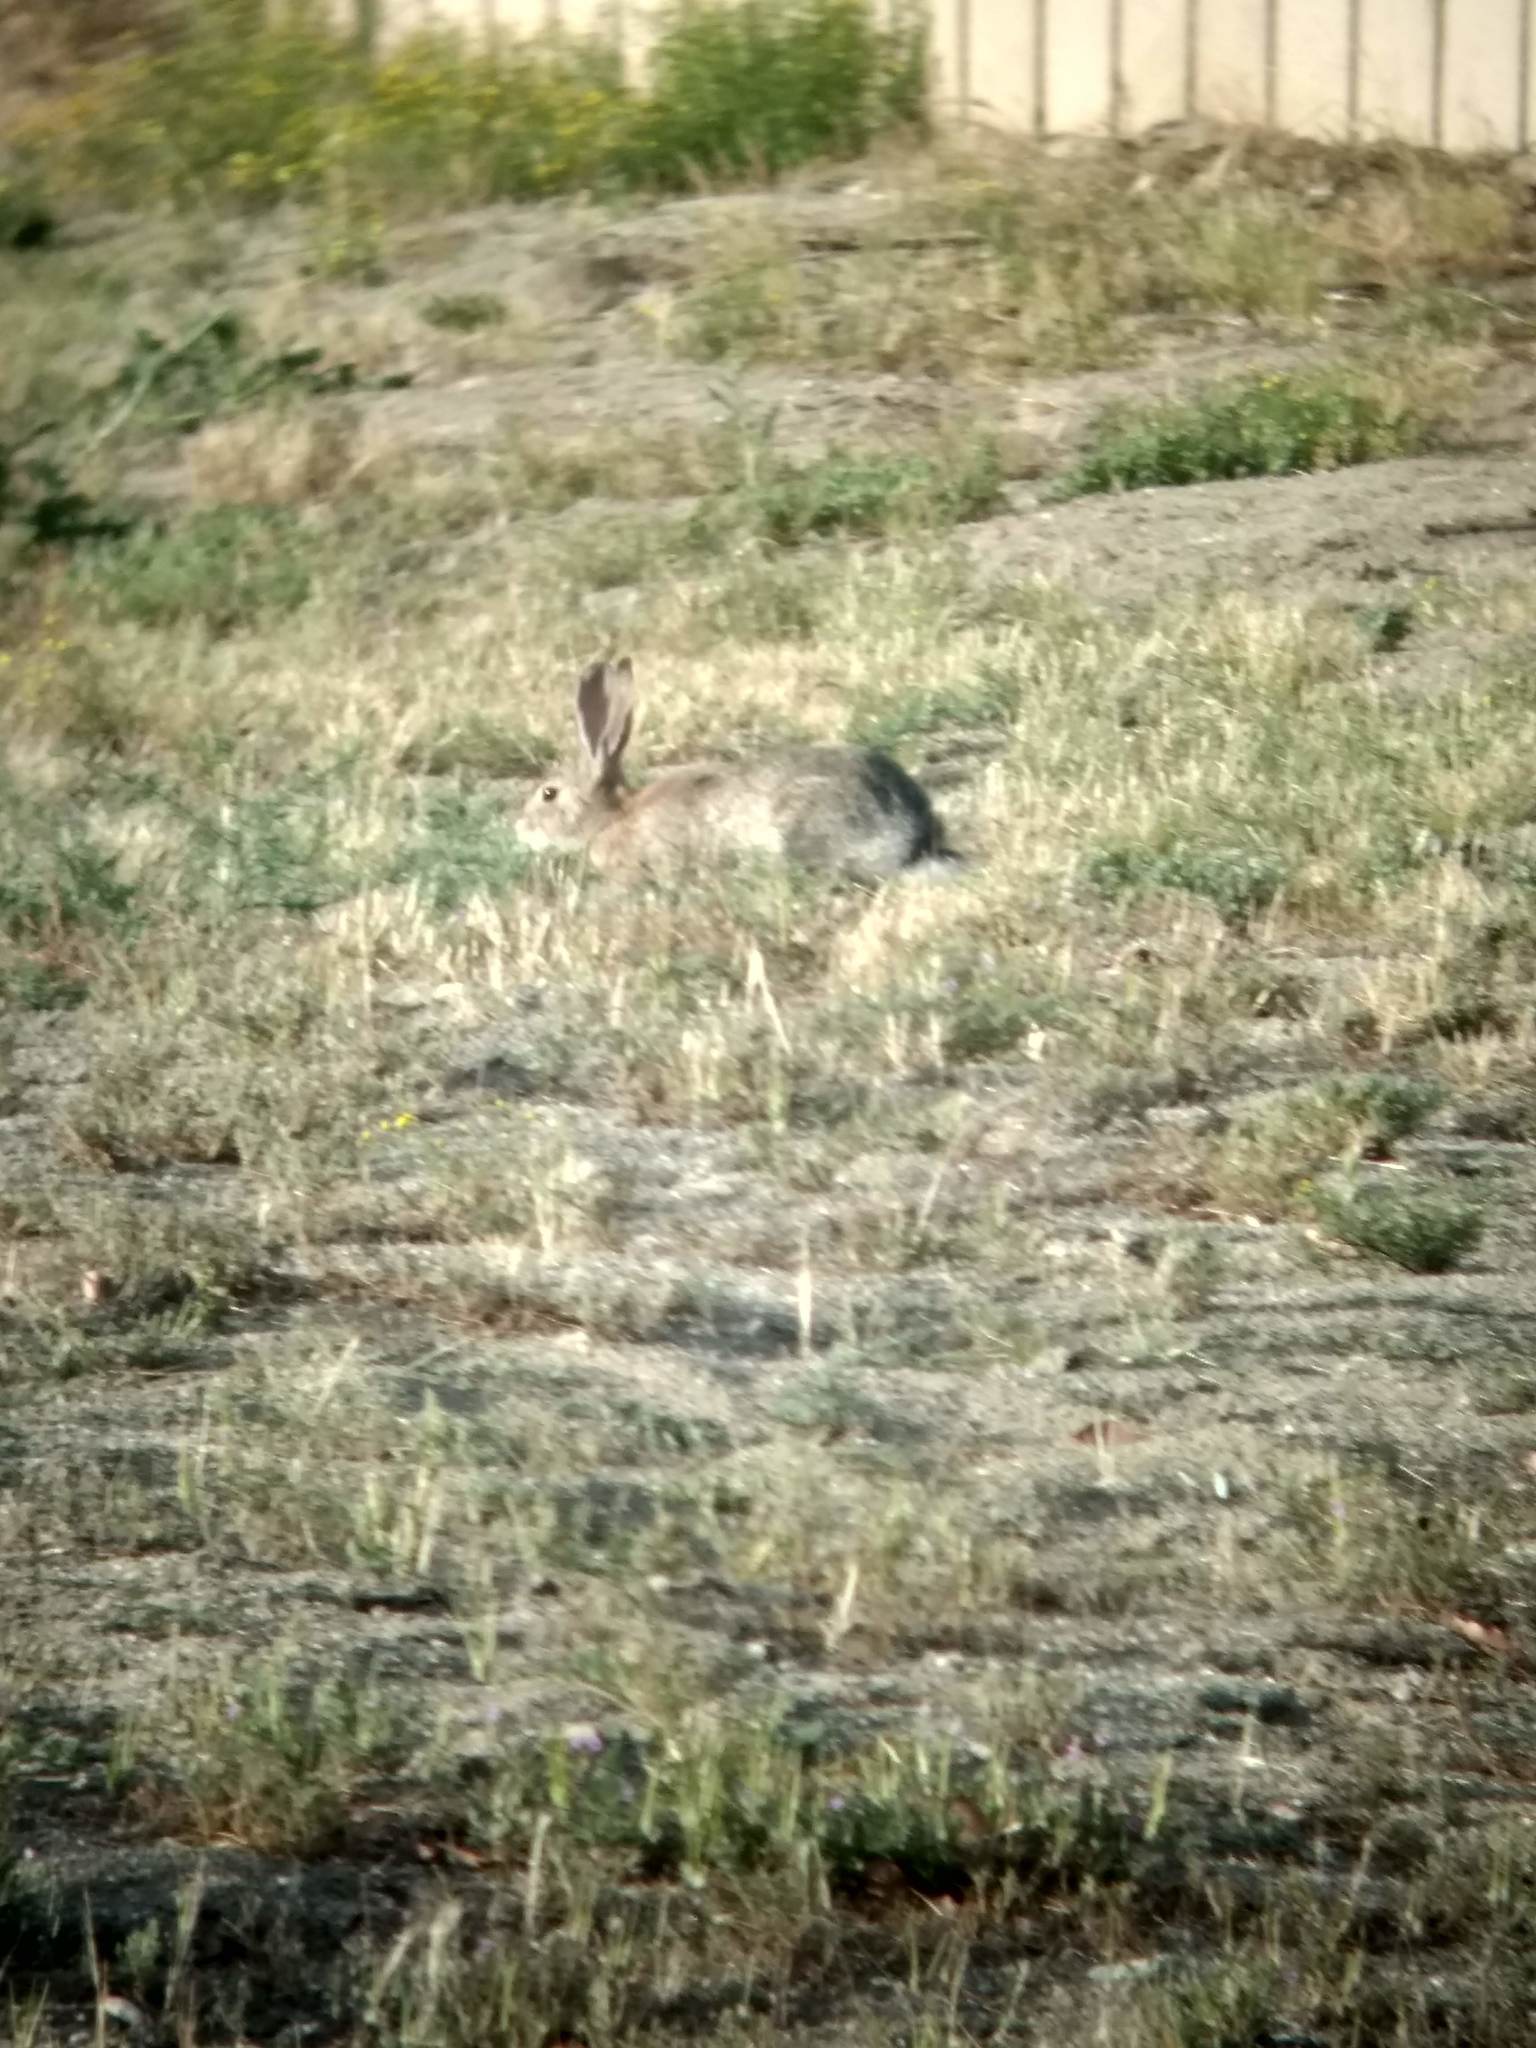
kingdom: Animalia
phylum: Chordata
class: Mammalia
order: Lagomorpha
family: Leporidae
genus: Sylvilagus
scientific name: Sylvilagus audubonii
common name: Desert cottontail
